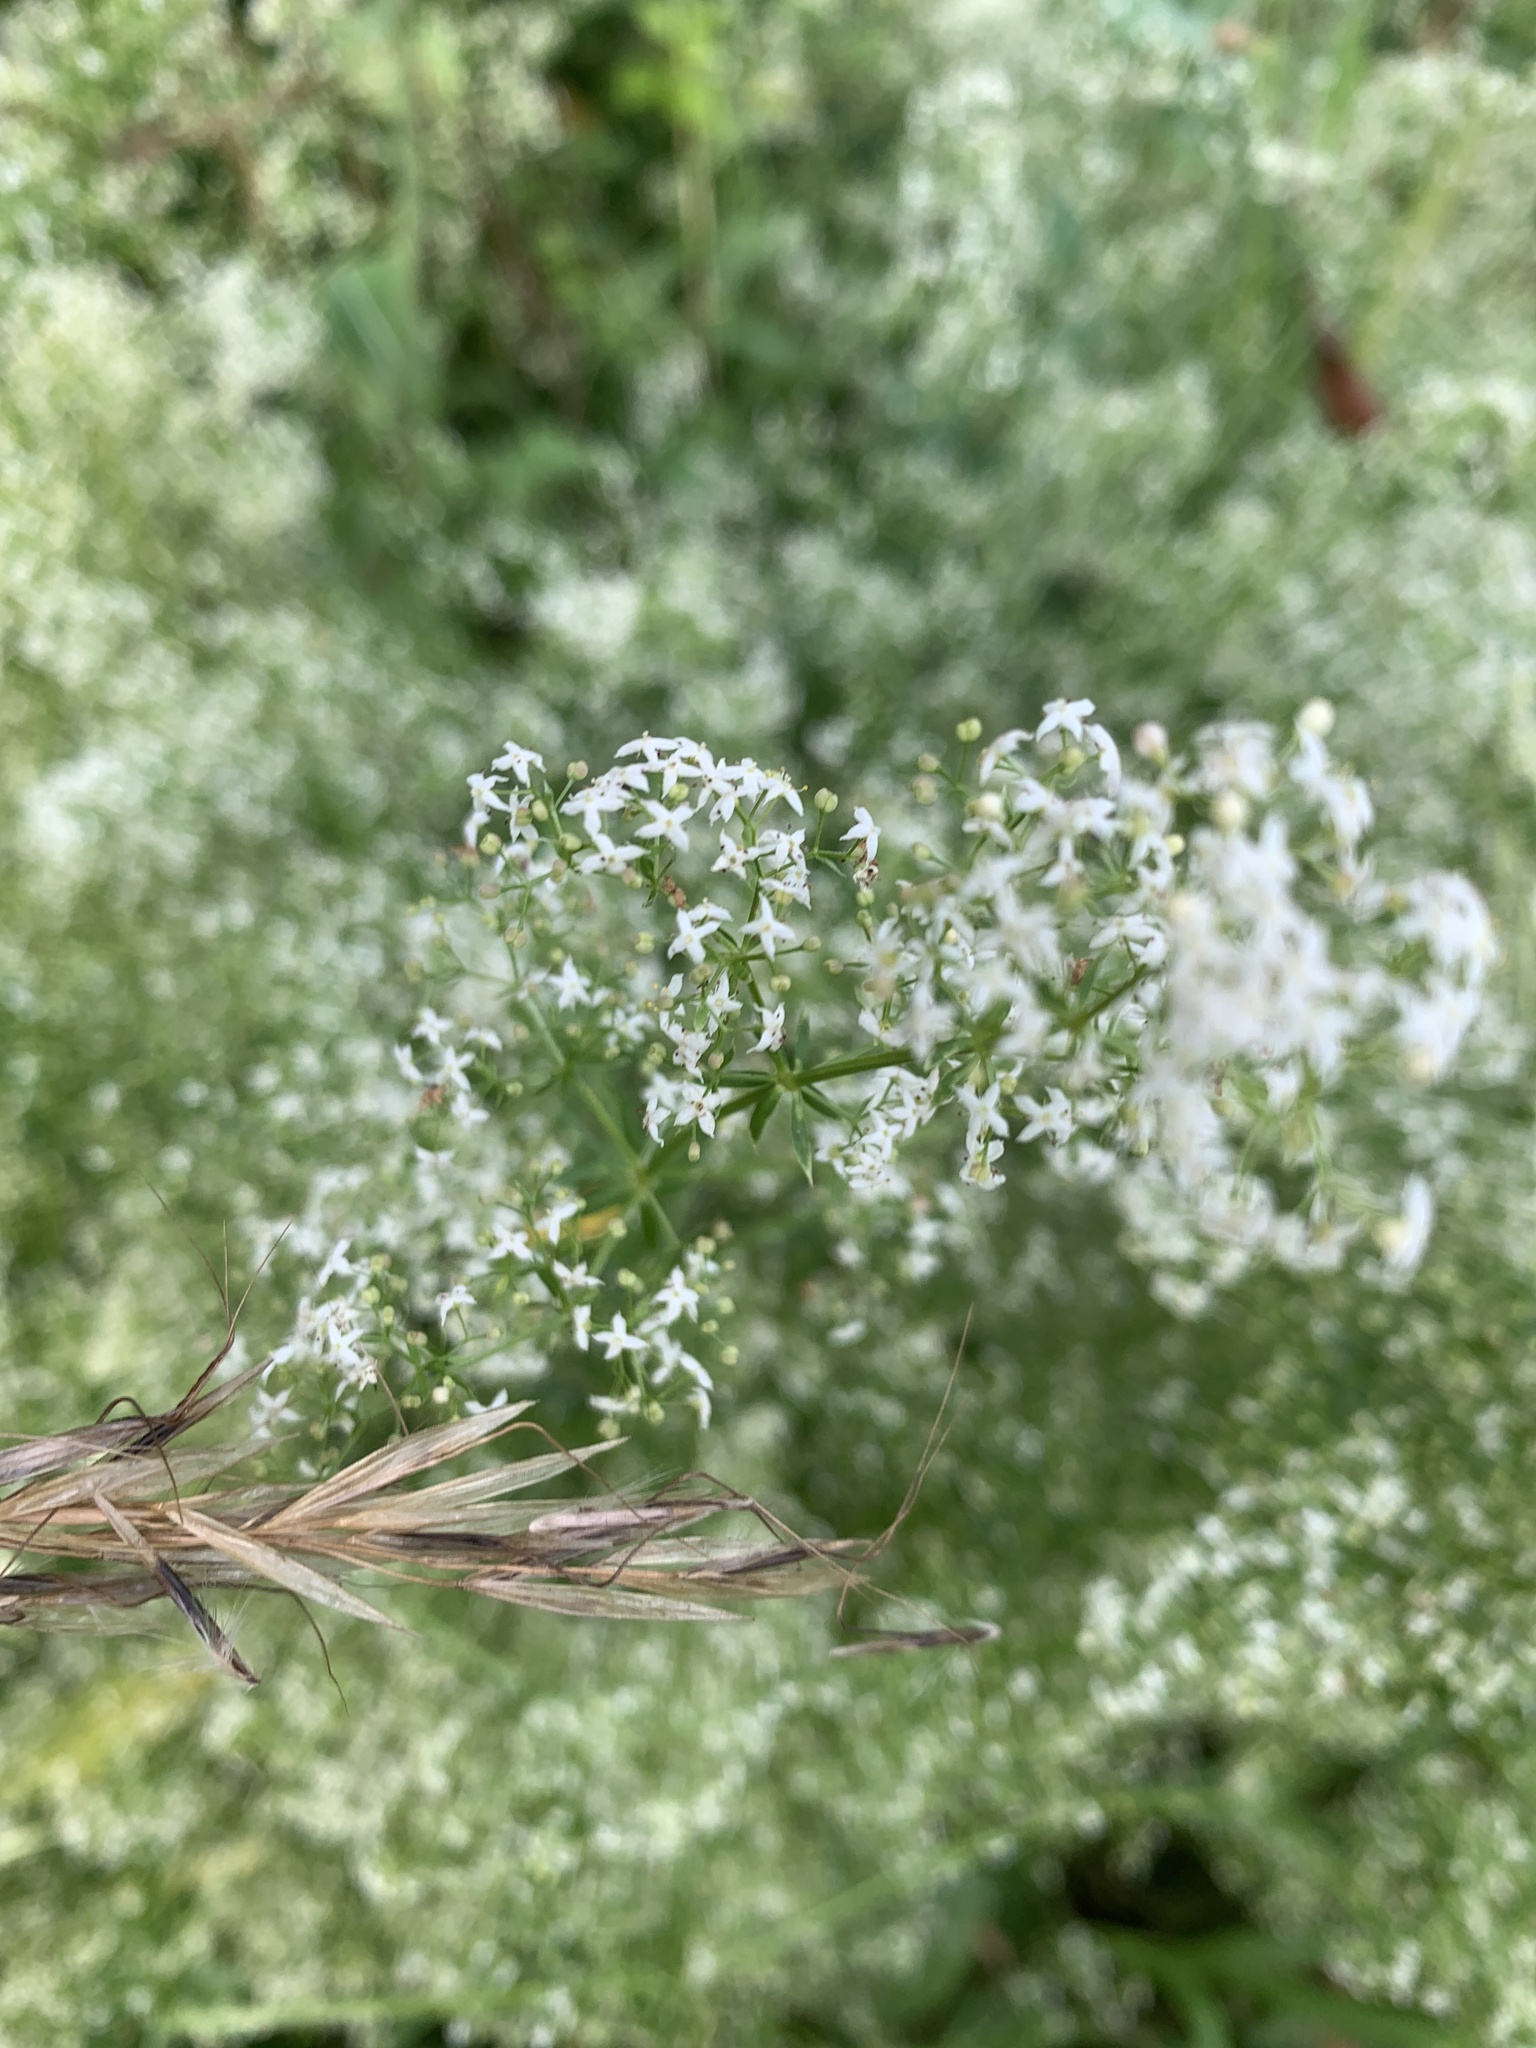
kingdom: Plantae
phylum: Tracheophyta
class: Magnoliopsida
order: Gentianales
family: Rubiaceae
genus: Galium
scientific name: Galium album
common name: White bedstraw
